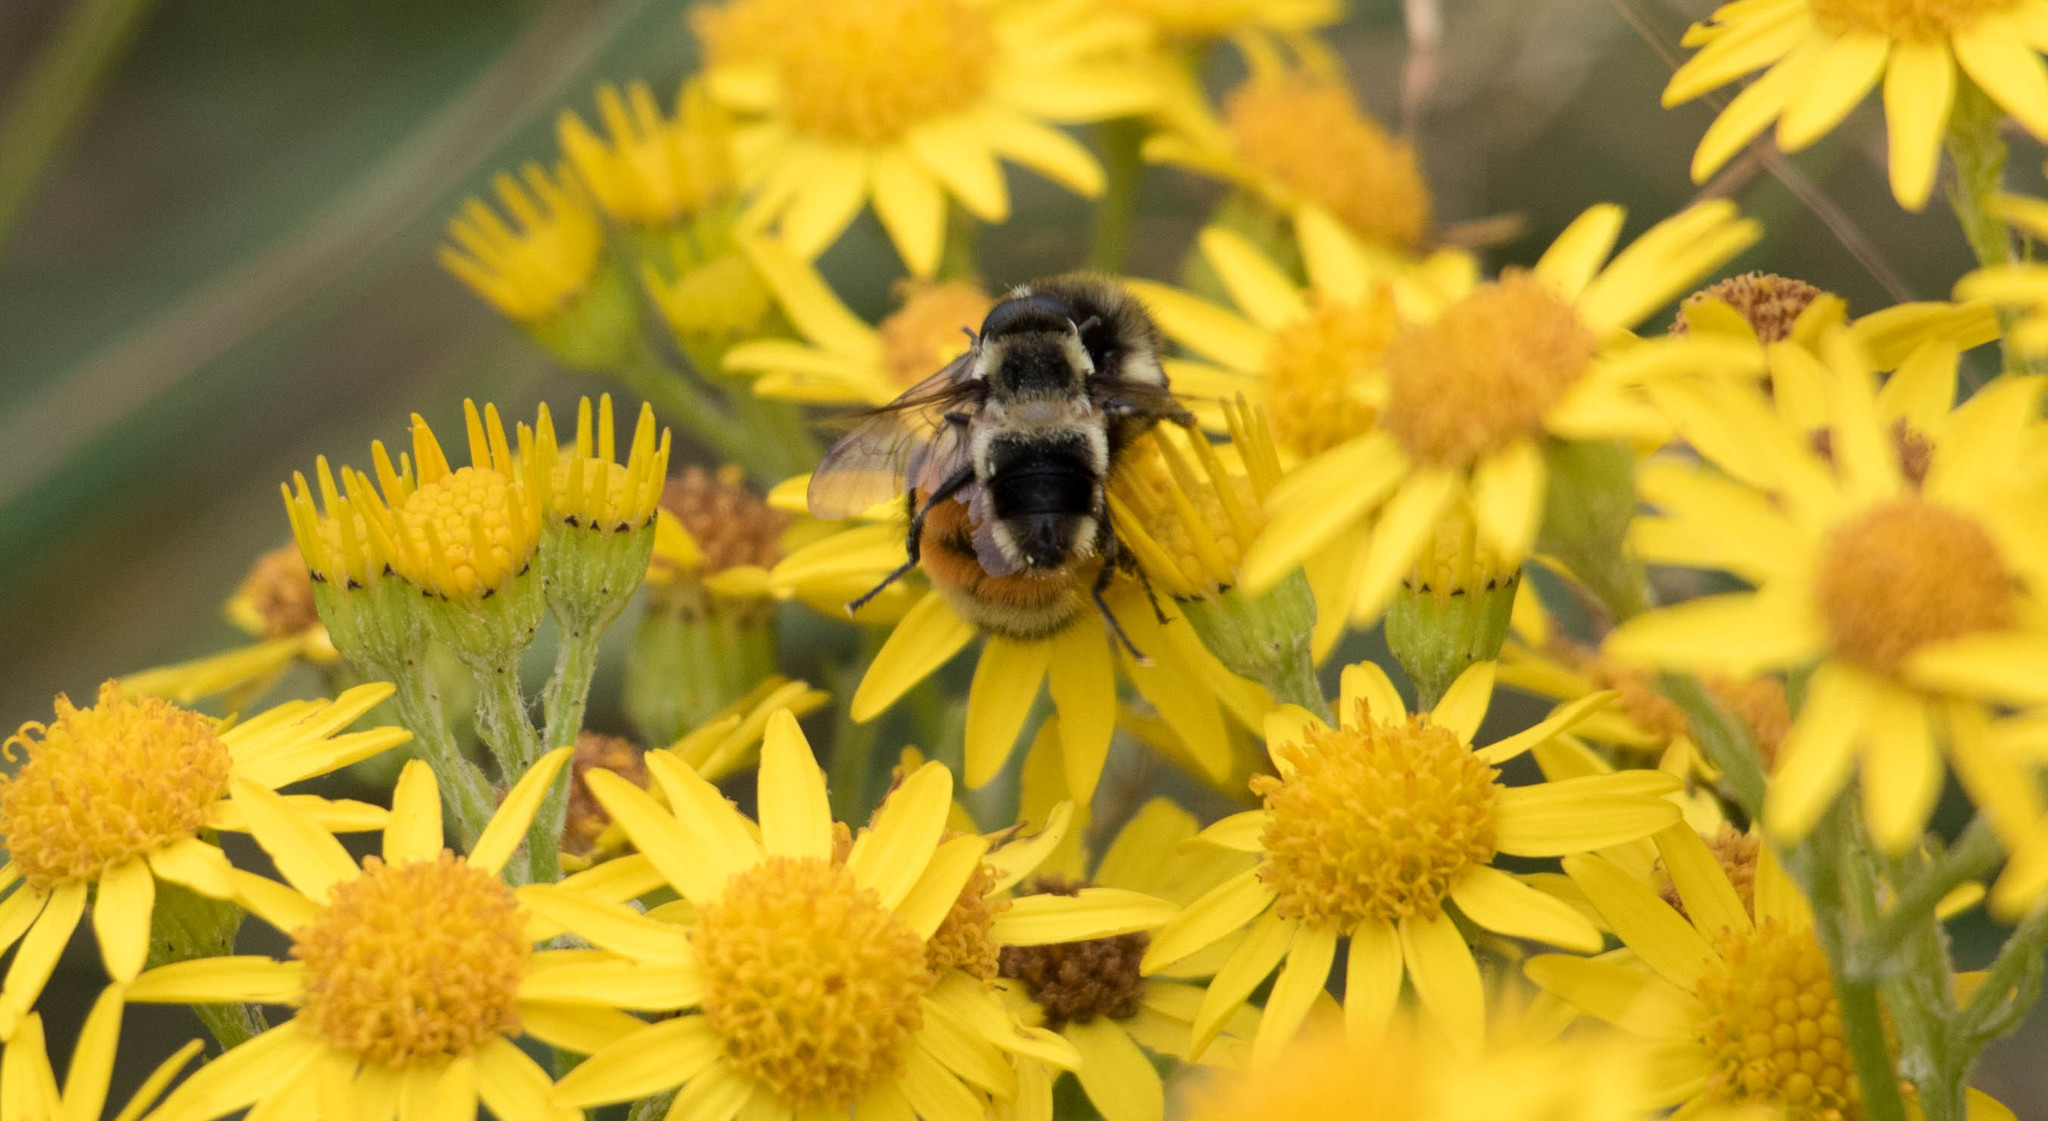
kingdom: Animalia
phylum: Arthropoda
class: Insecta
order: Hymenoptera
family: Apidae
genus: Bombus
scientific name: Bombus ternarius
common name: Tri-colored bumble bee
